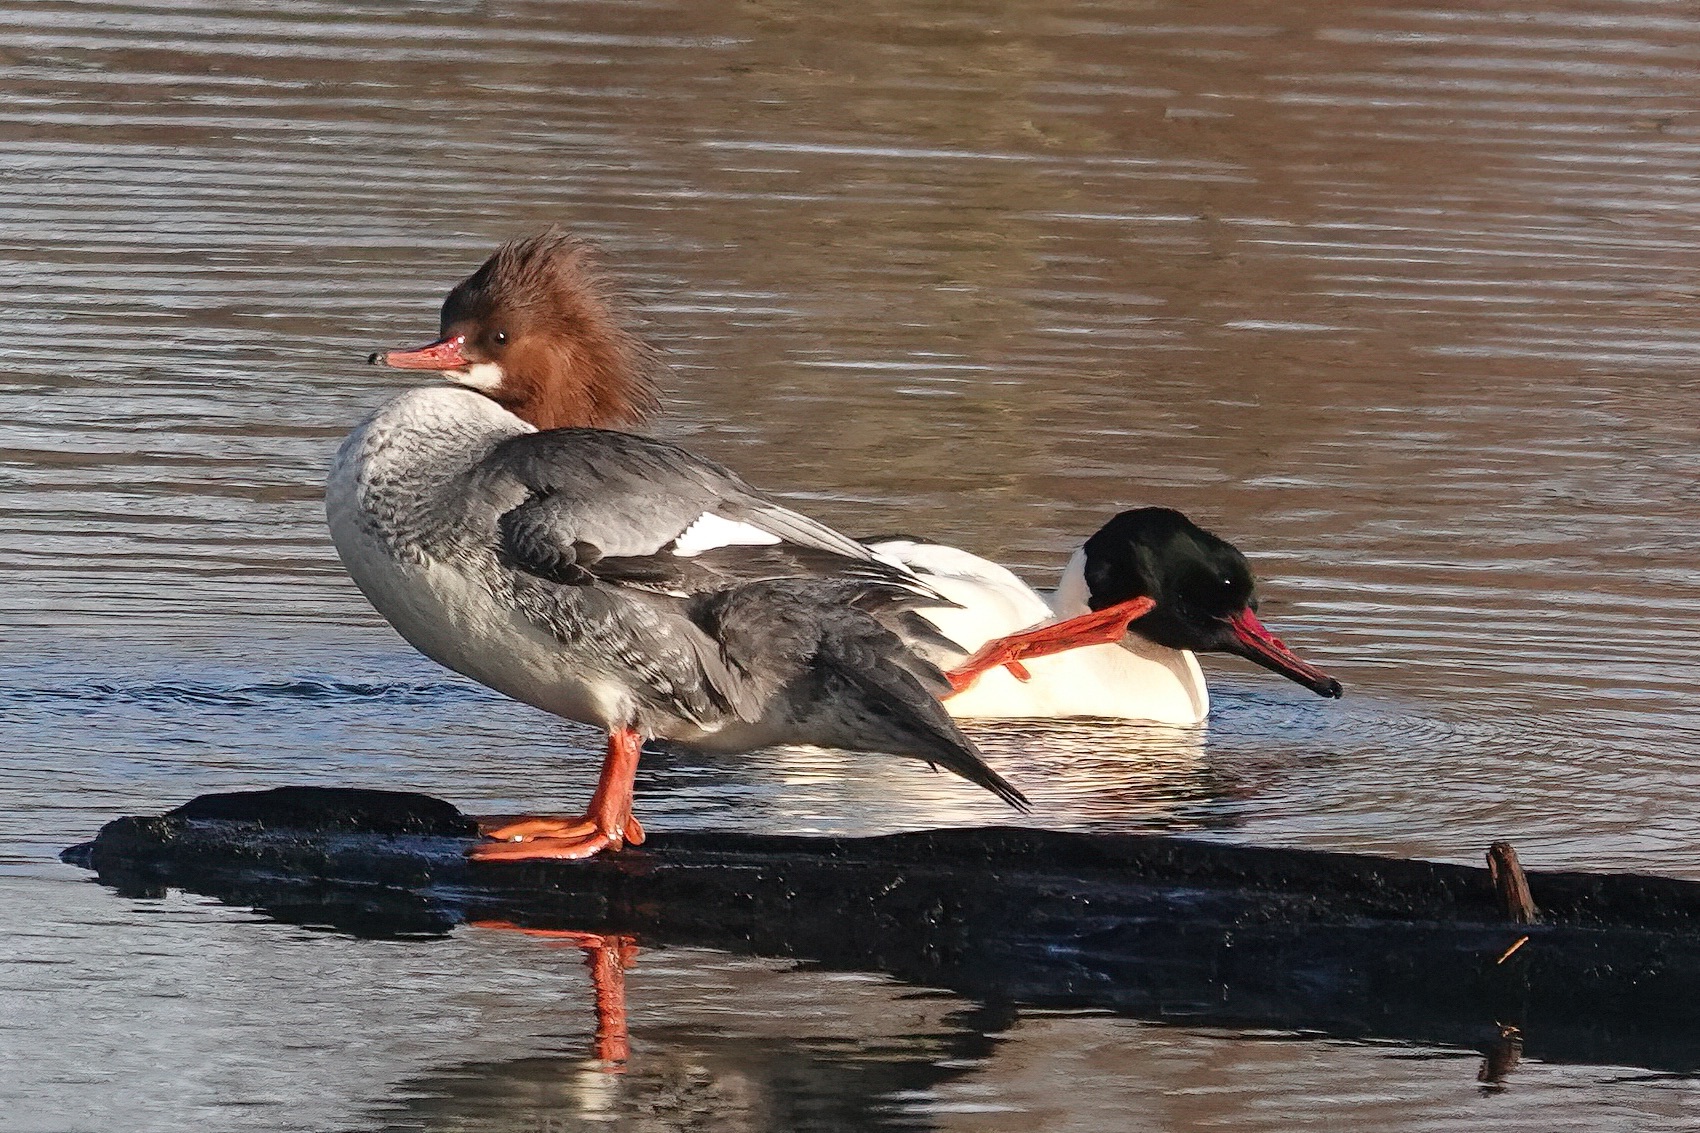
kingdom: Animalia
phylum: Chordata
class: Aves
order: Anseriformes
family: Anatidae
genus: Mergus
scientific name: Mergus merganser
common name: Common merganser
